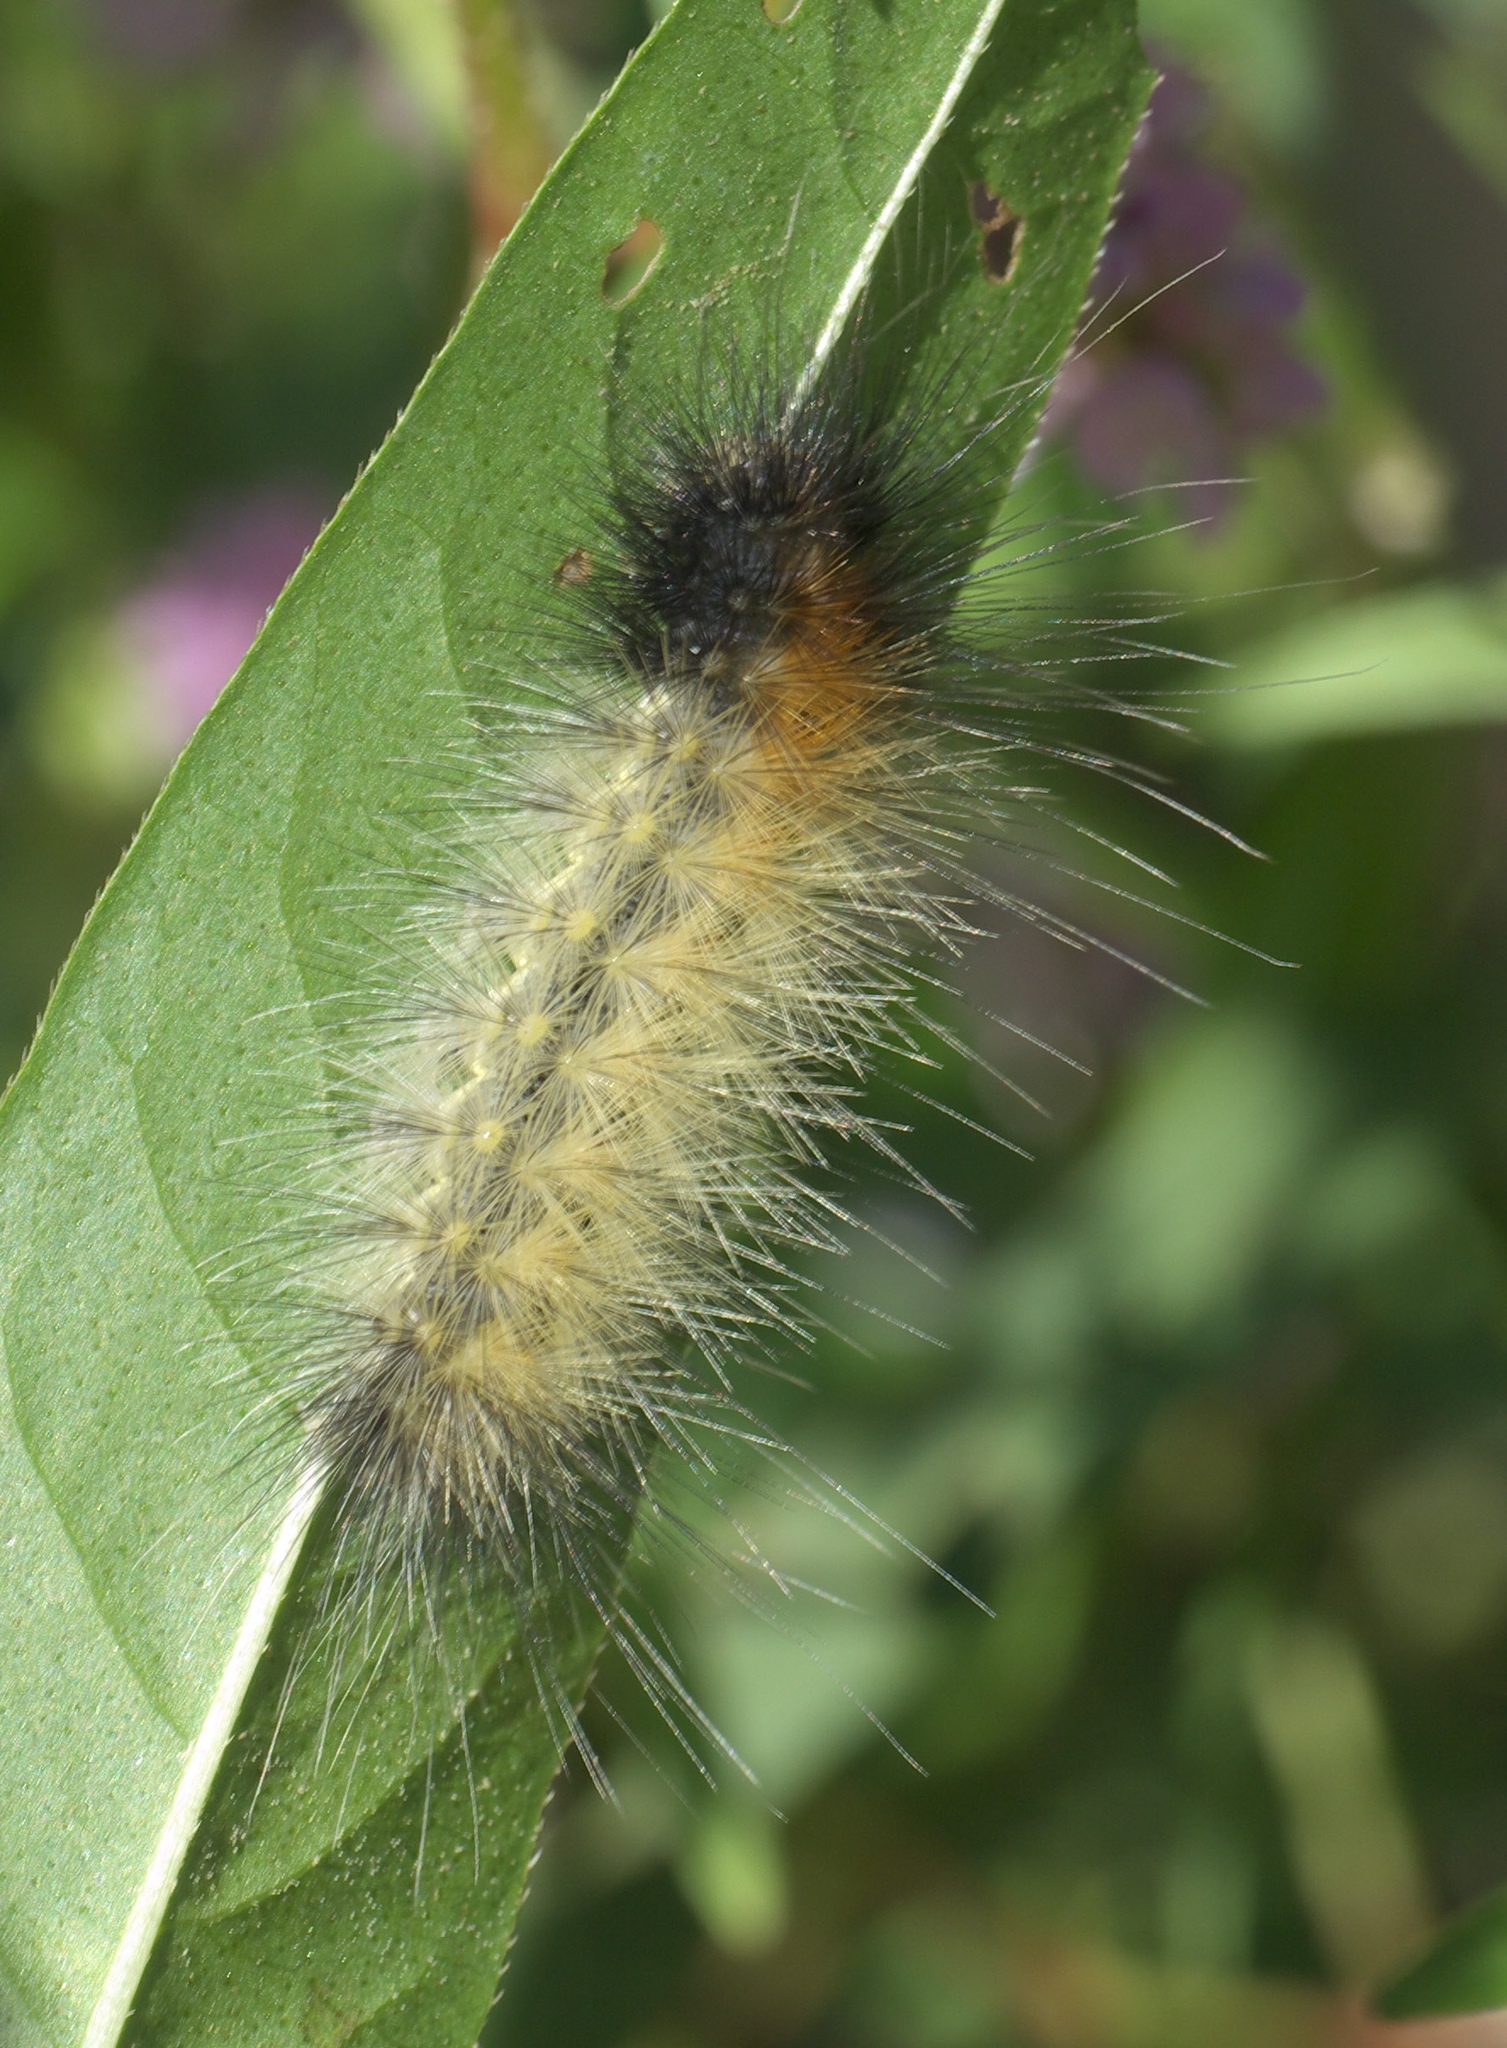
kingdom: Animalia
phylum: Arthropoda
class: Insecta
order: Lepidoptera
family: Erebidae
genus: Spilosoma
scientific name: Spilosoma virginica
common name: Virginia tiger moth
